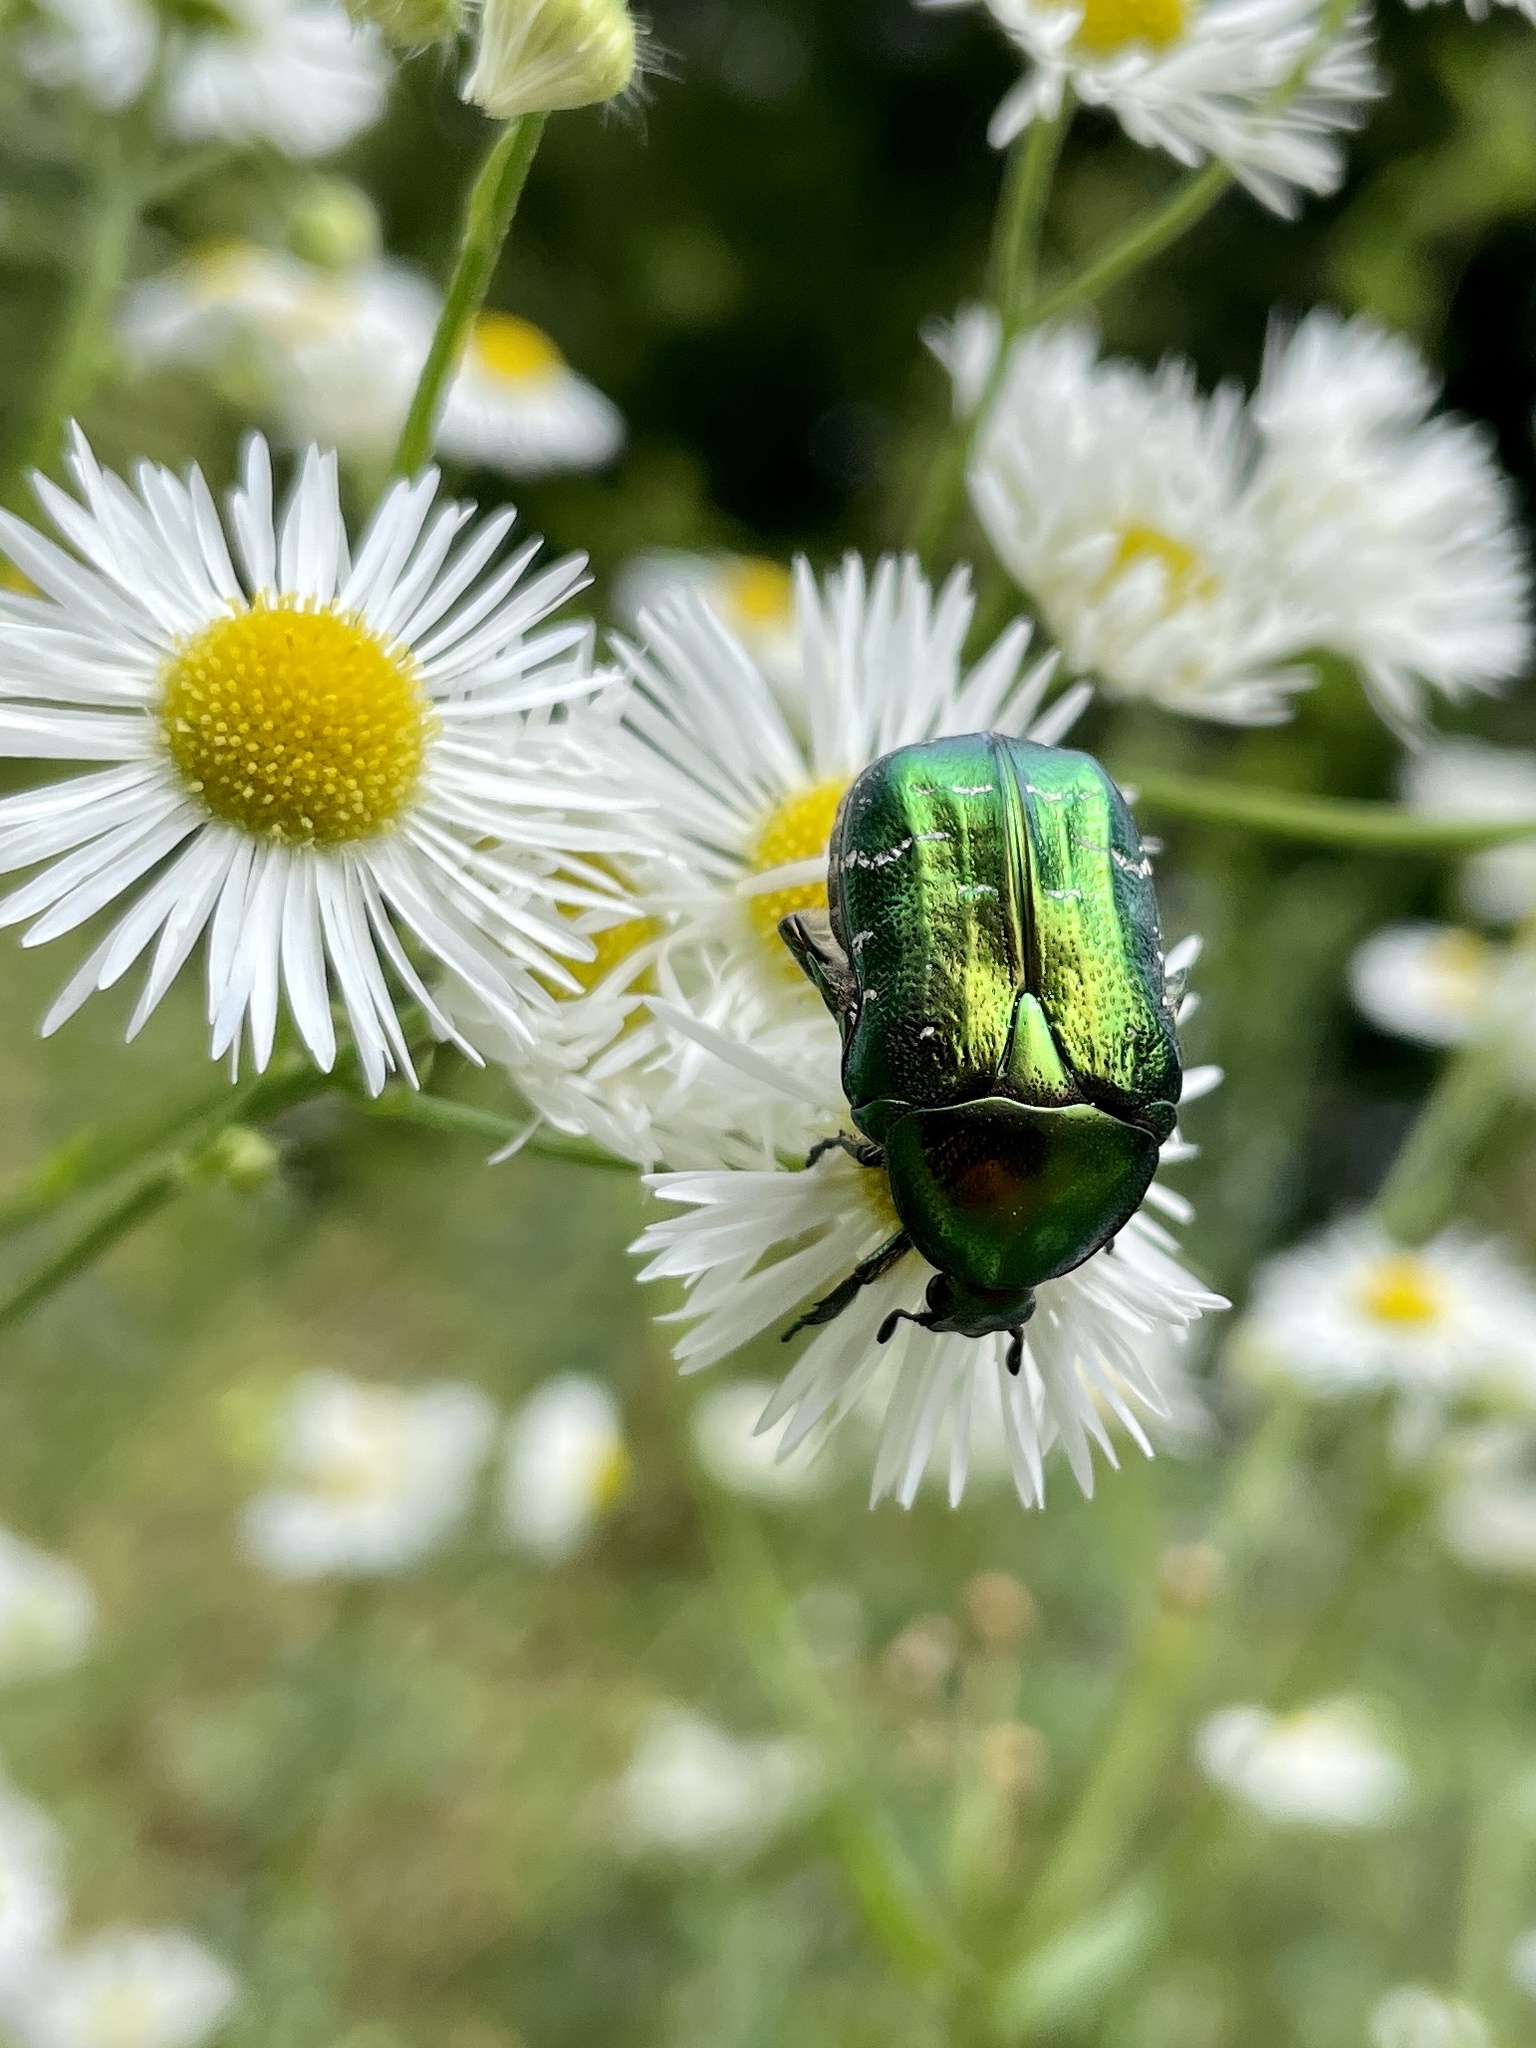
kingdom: Animalia
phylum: Arthropoda
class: Insecta
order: Coleoptera
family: Scarabaeidae
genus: Cetonia
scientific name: Cetonia aurata
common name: Rose chafer
